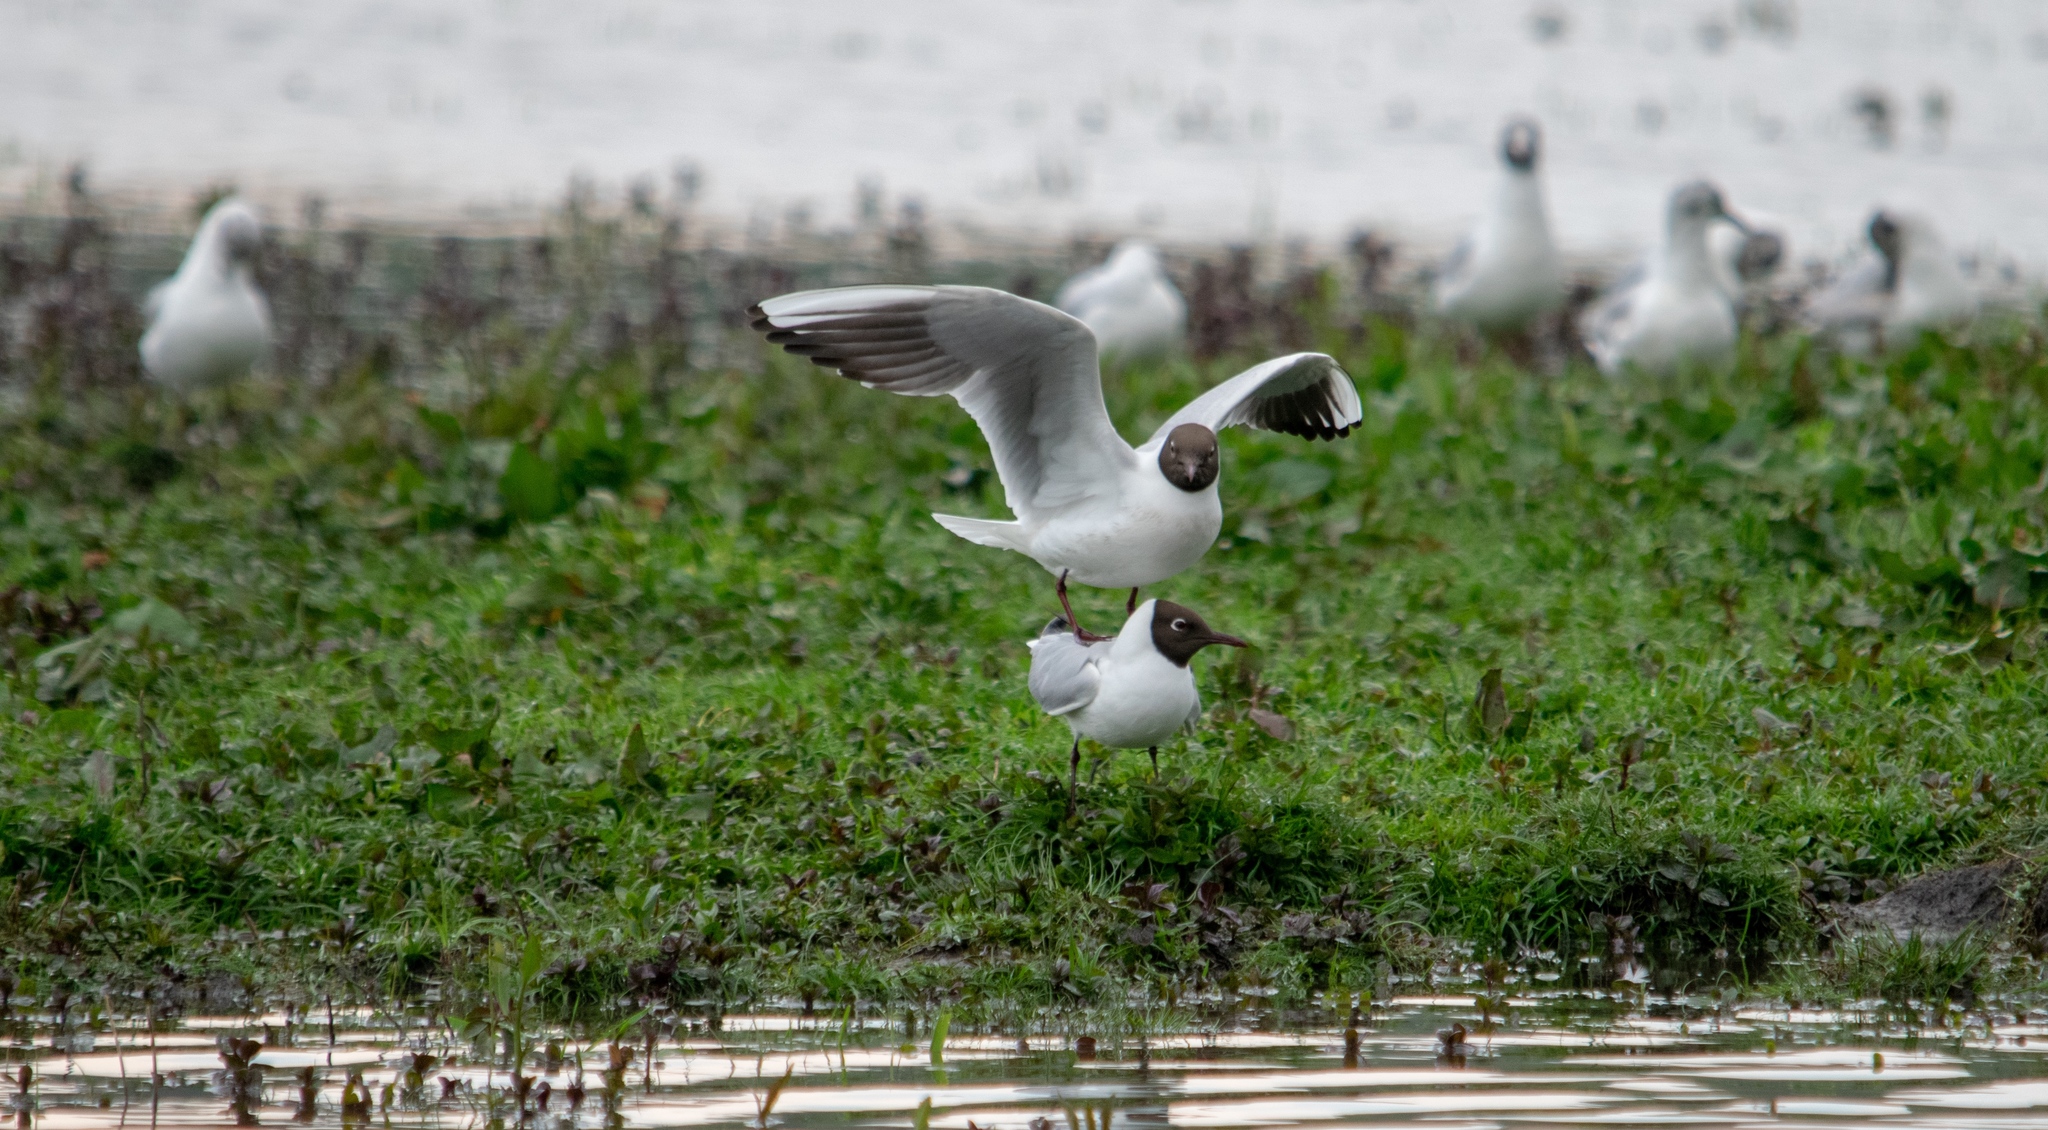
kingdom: Animalia
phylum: Chordata
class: Aves
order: Charadriiformes
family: Laridae
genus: Chroicocephalus
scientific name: Chroicocephalus ridibundus
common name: Black-headed gull
